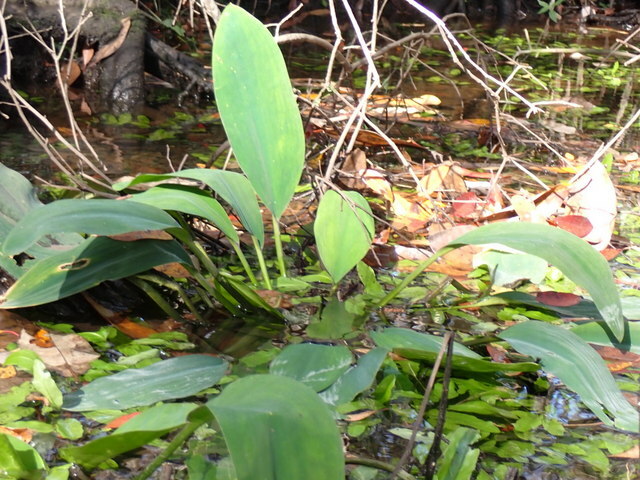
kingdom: Plantae
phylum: Tracheophyta
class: Liliopsida
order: Alismatales
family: Araceae
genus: Orontium
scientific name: Orontium aquaticum
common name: Golden-club
